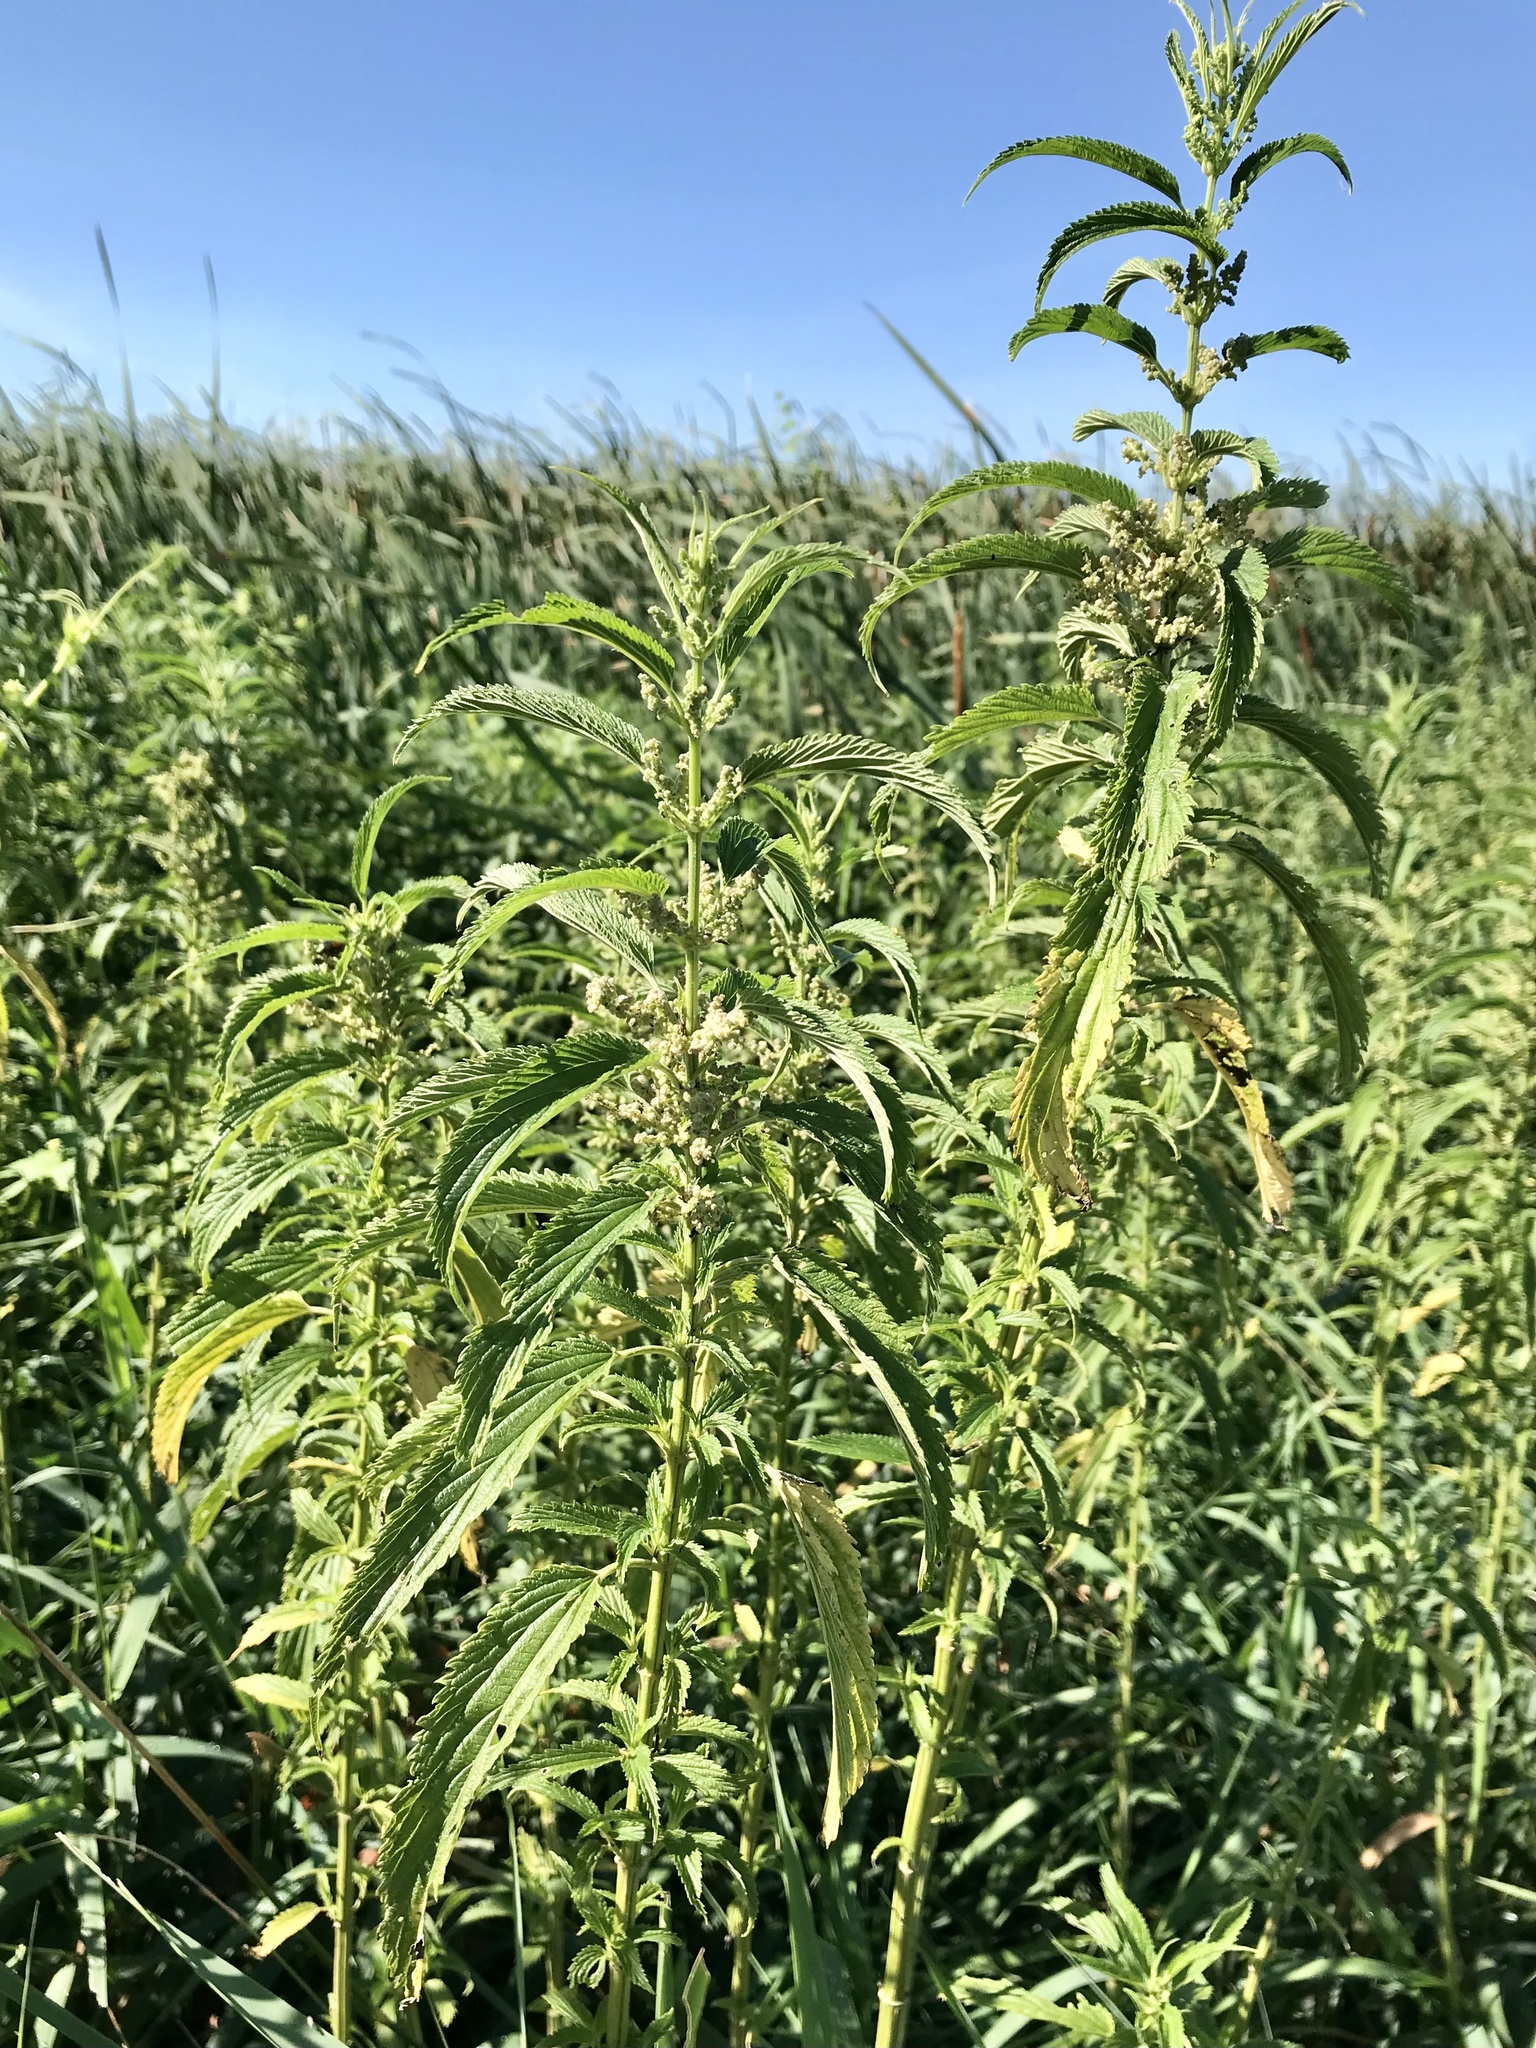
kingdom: Plantae
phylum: Tracheophyta
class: Magnoliopsida
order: Rosales
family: Urticaceae
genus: Urtica
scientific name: Urtica gracilis
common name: Slender stinging nettle
